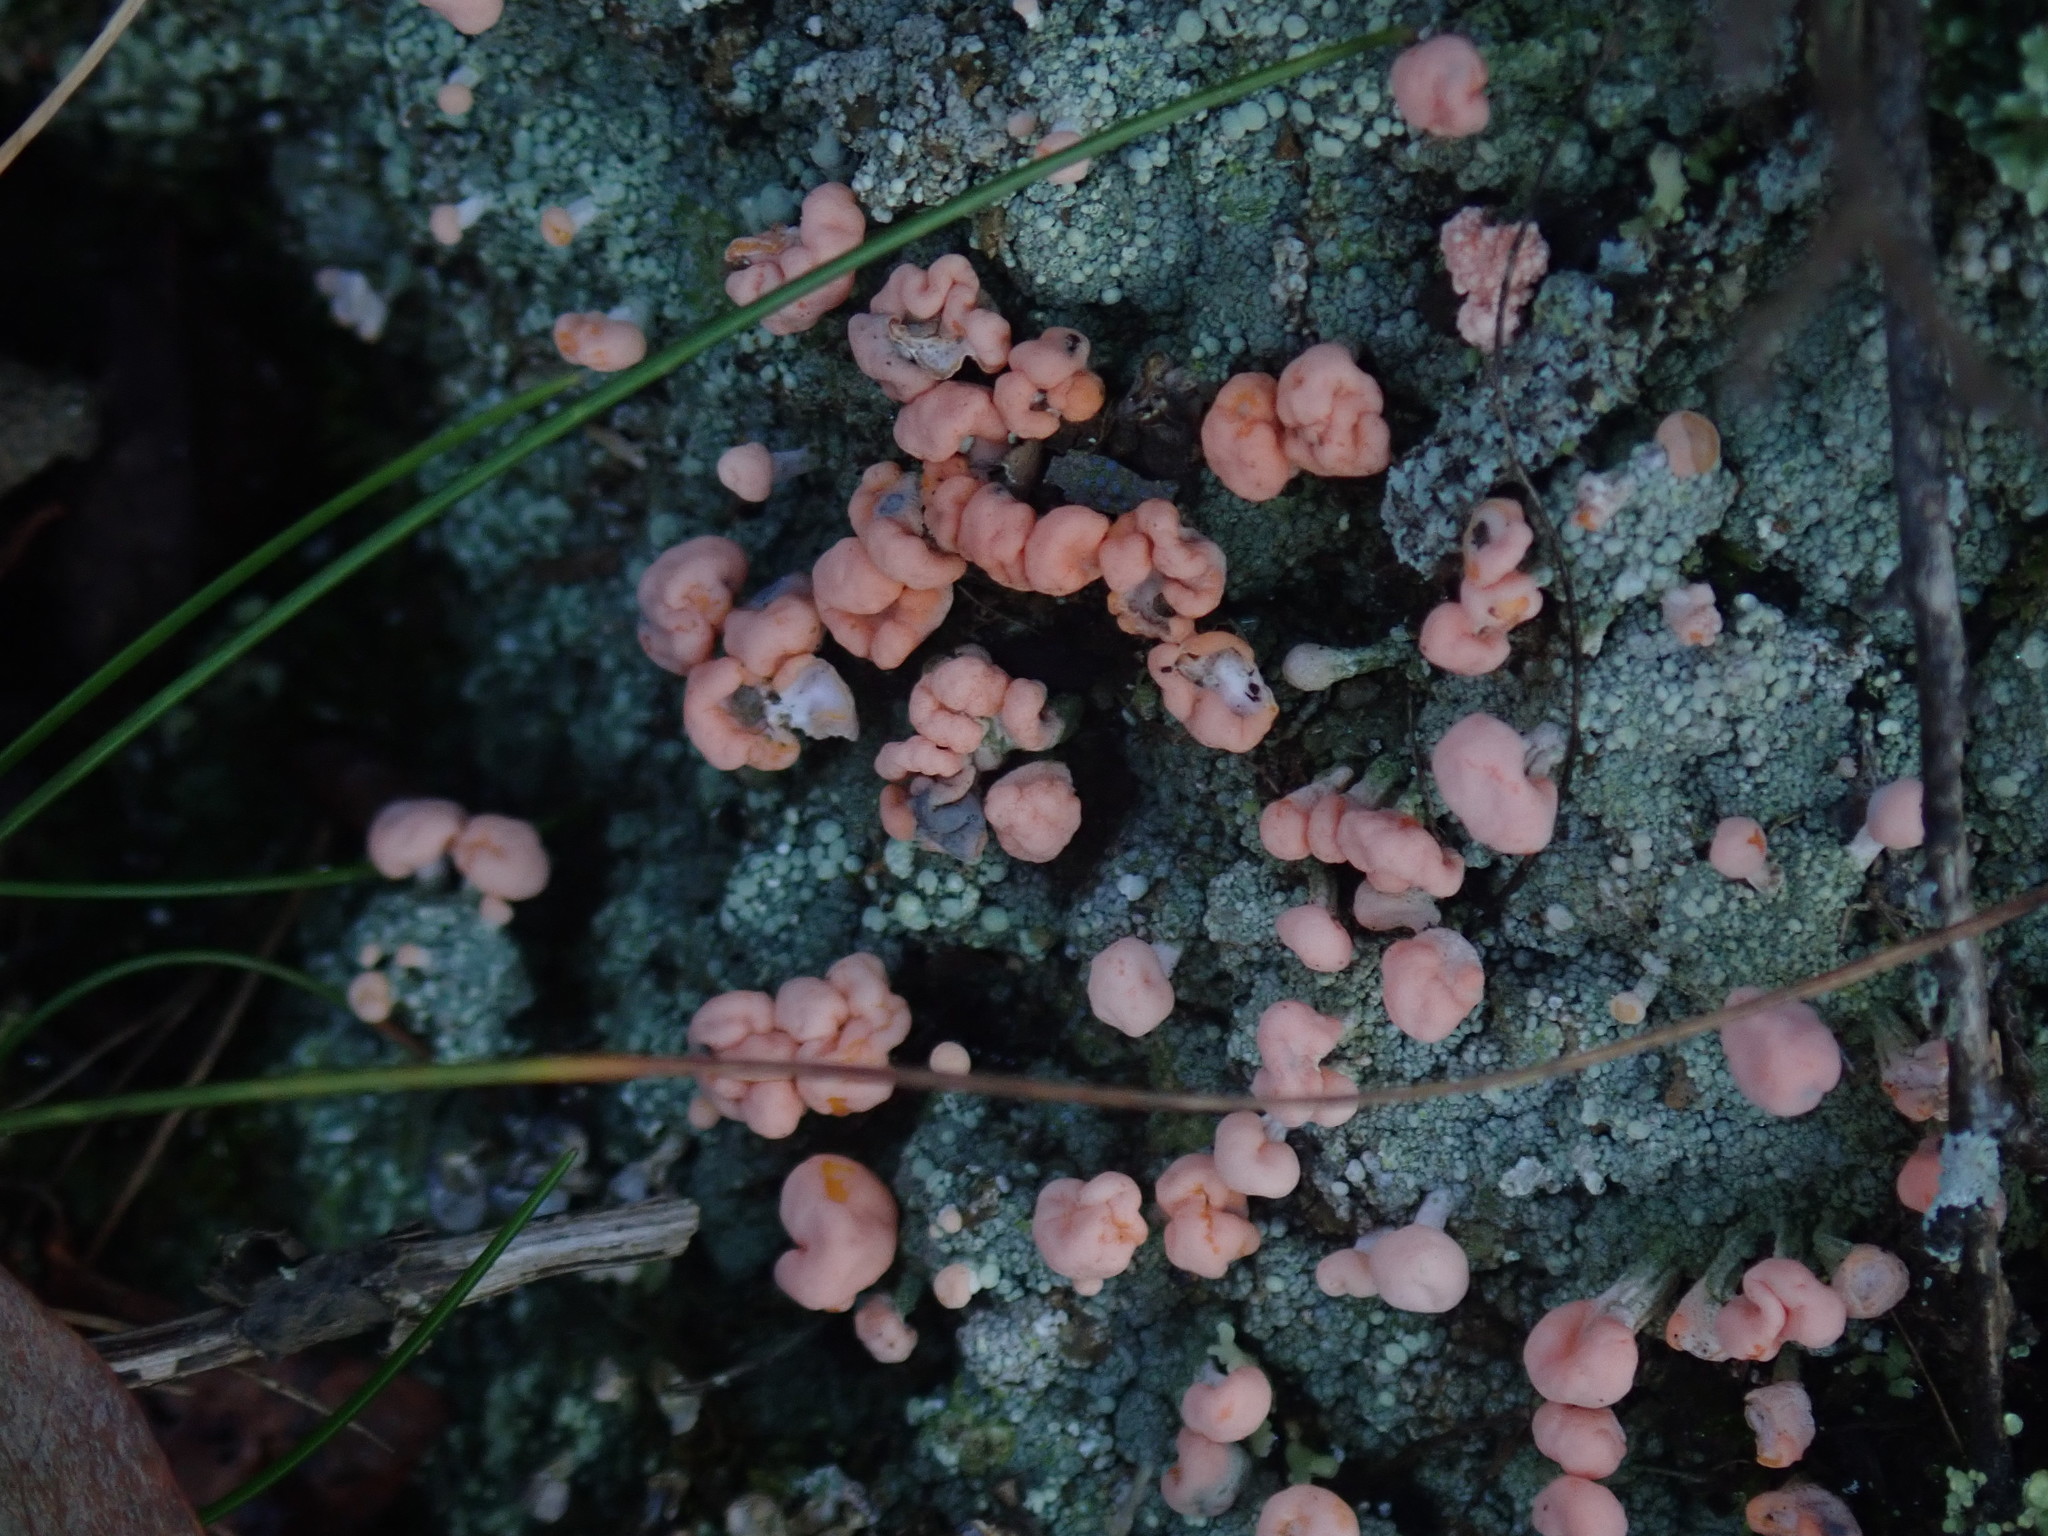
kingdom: Fungi
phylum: Ascomycota
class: Lecanoromycetes
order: Pertusariales
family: Icmadophilaceae
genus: Dibaeis
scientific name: Dibaeis baeomyces
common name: Pink earth lichen
